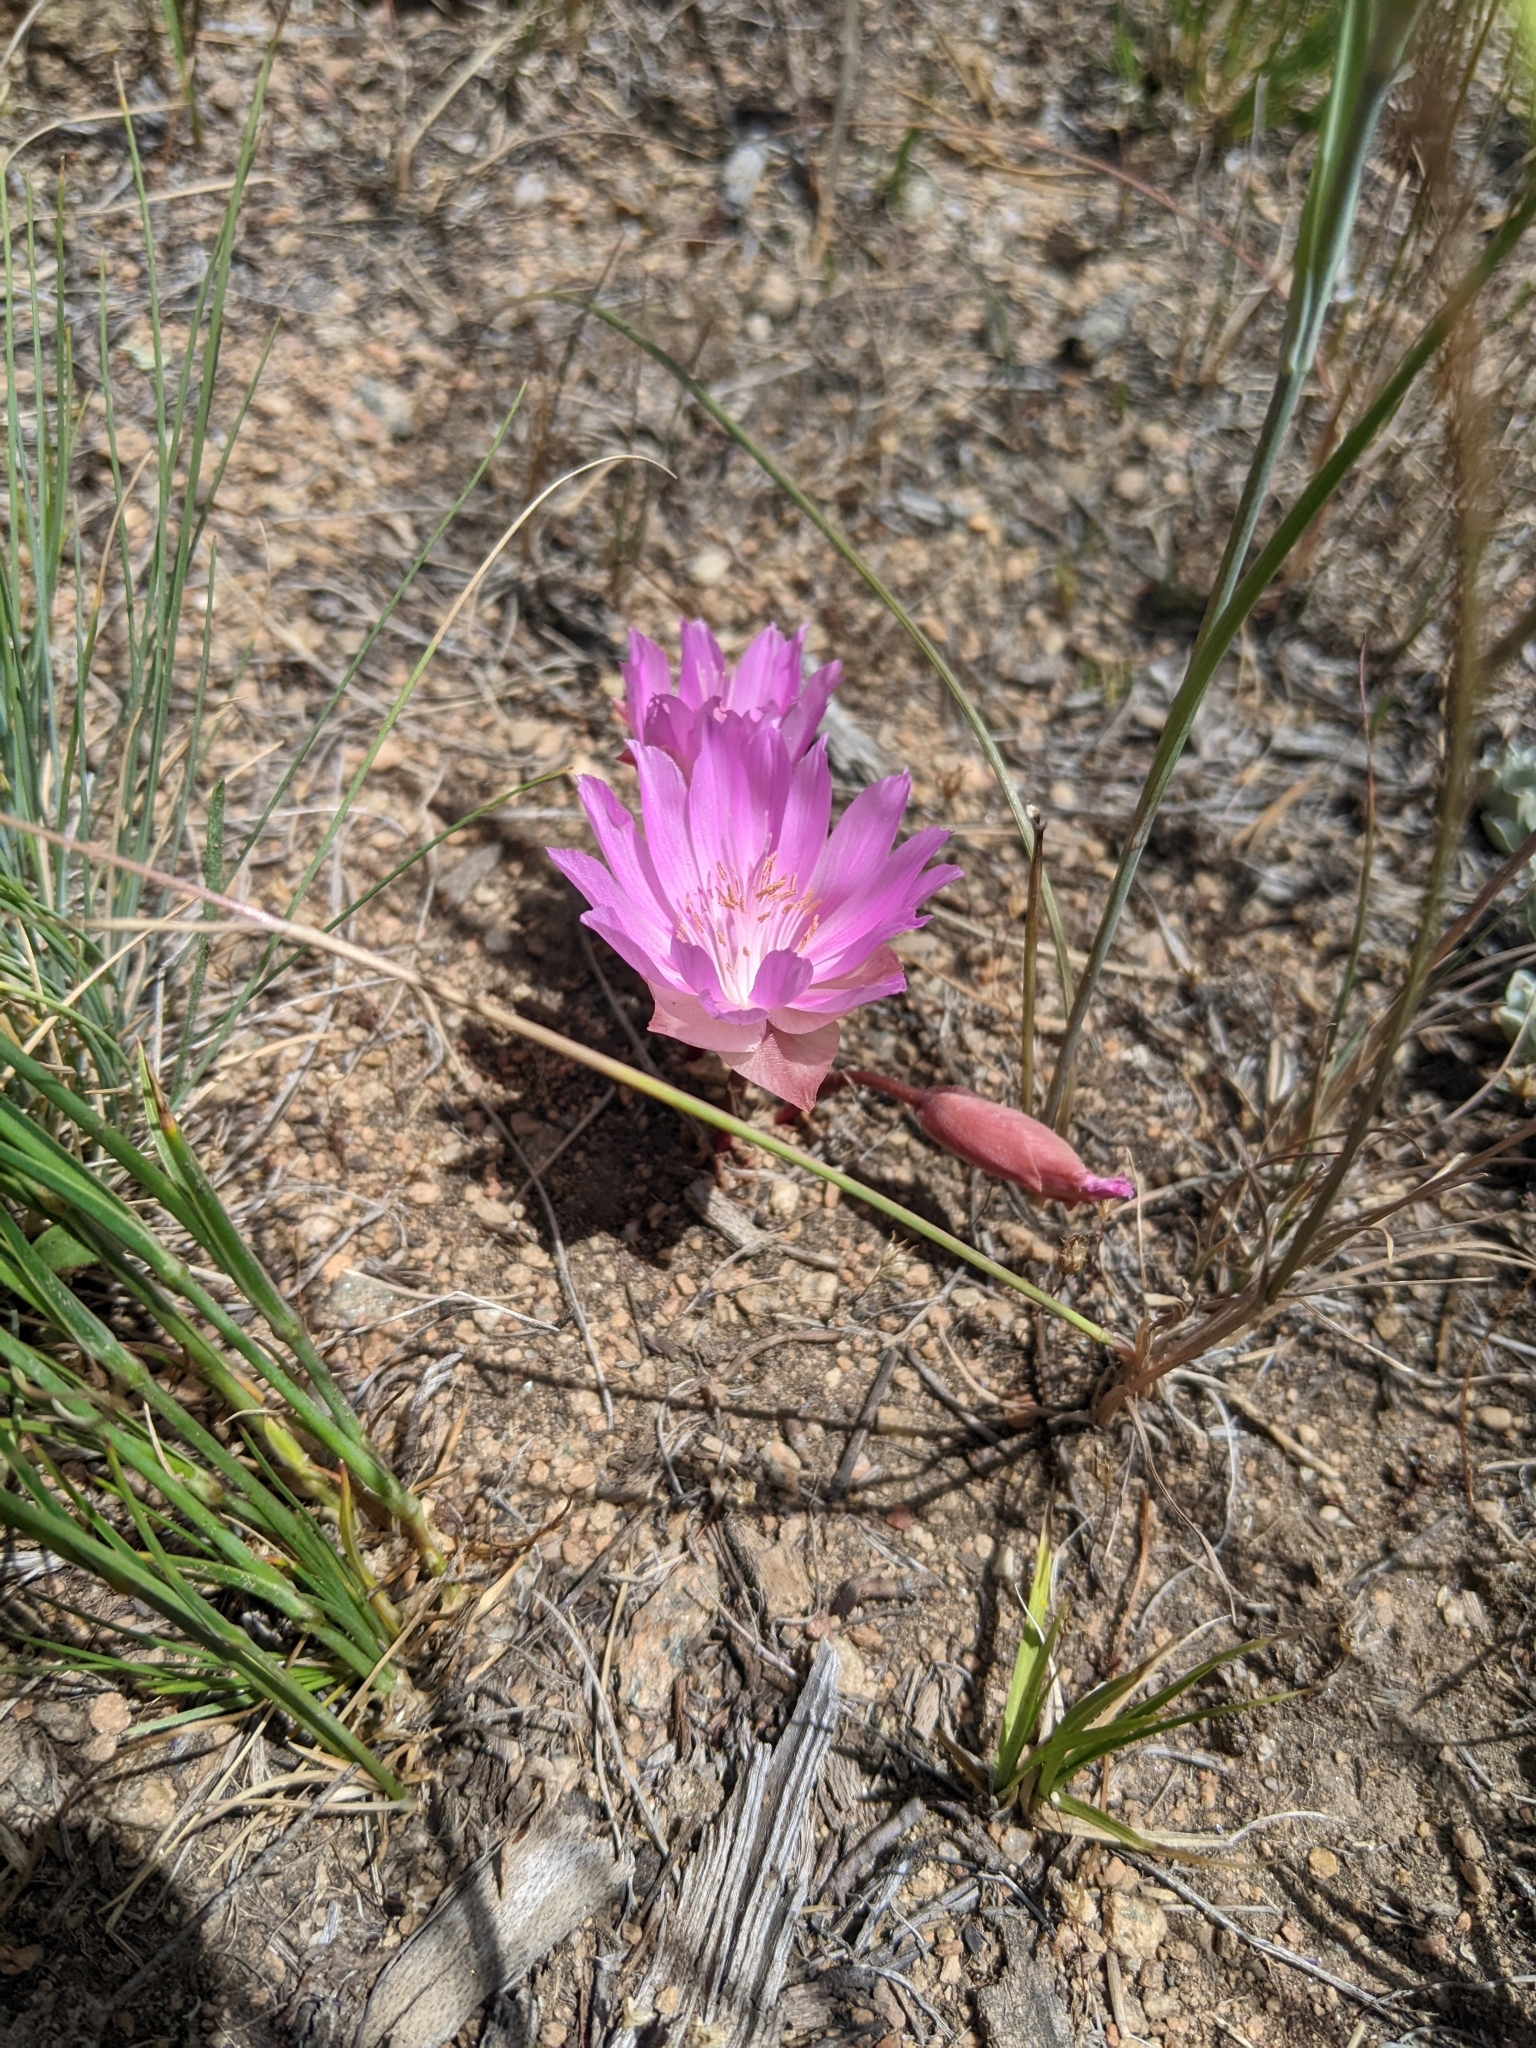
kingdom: Plantae
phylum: Tracheophyta
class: Magnoliopsida
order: Caryophyllales
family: Montiaceae
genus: Lewisia
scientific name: Lewisia rediviva
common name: Bitter-root
